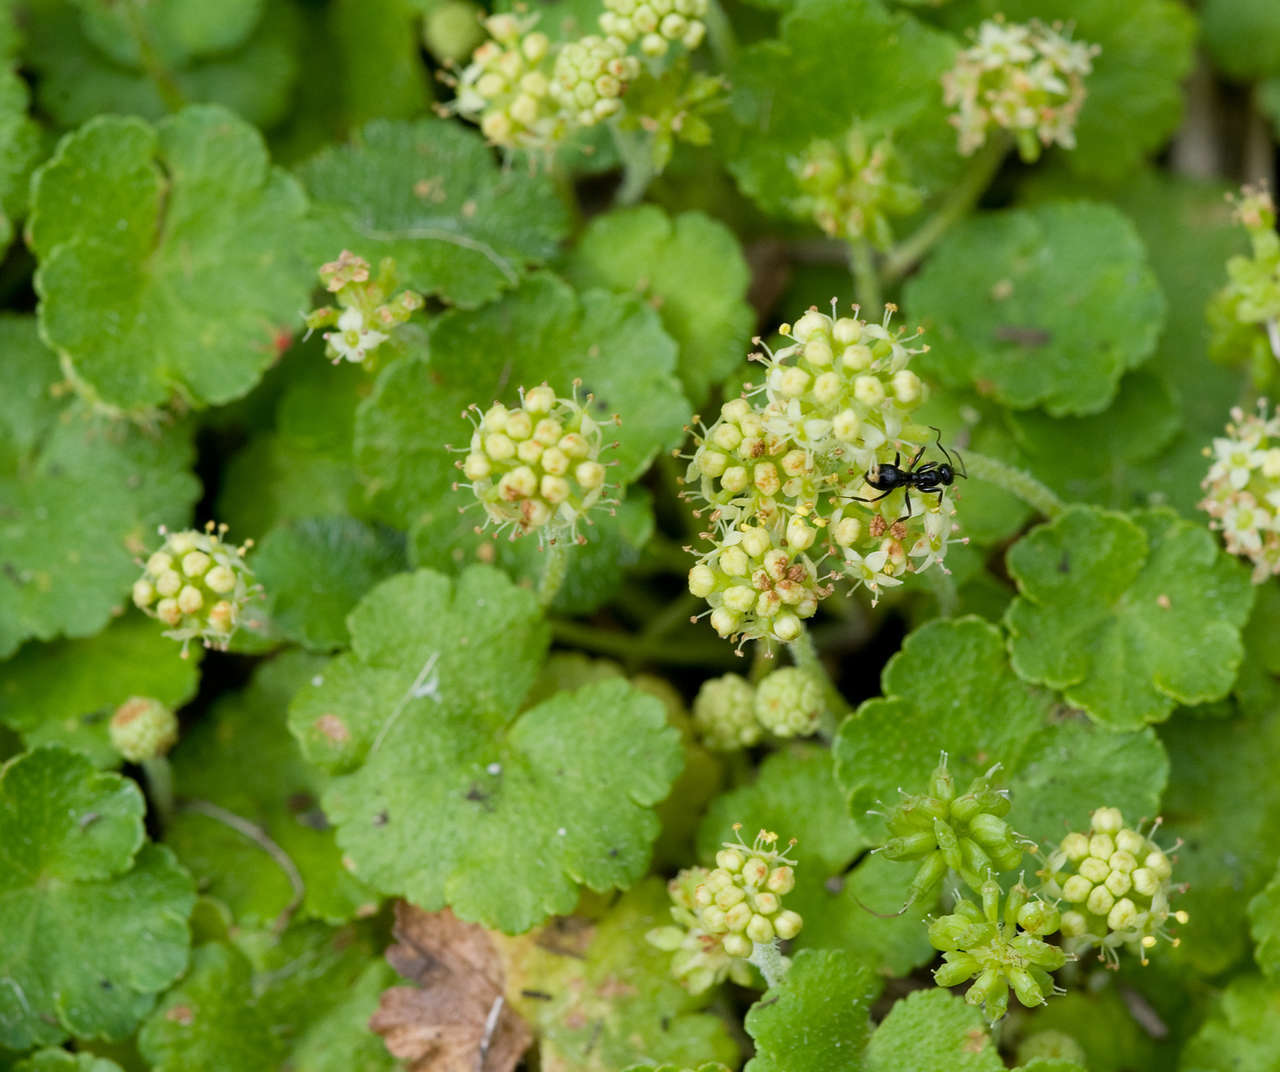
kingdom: Plantae
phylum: Tracheophyta
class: Magnoliopsida
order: Apiales
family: Araliaceae
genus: Hydrocotyle
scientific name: Hydrocotyle algida
